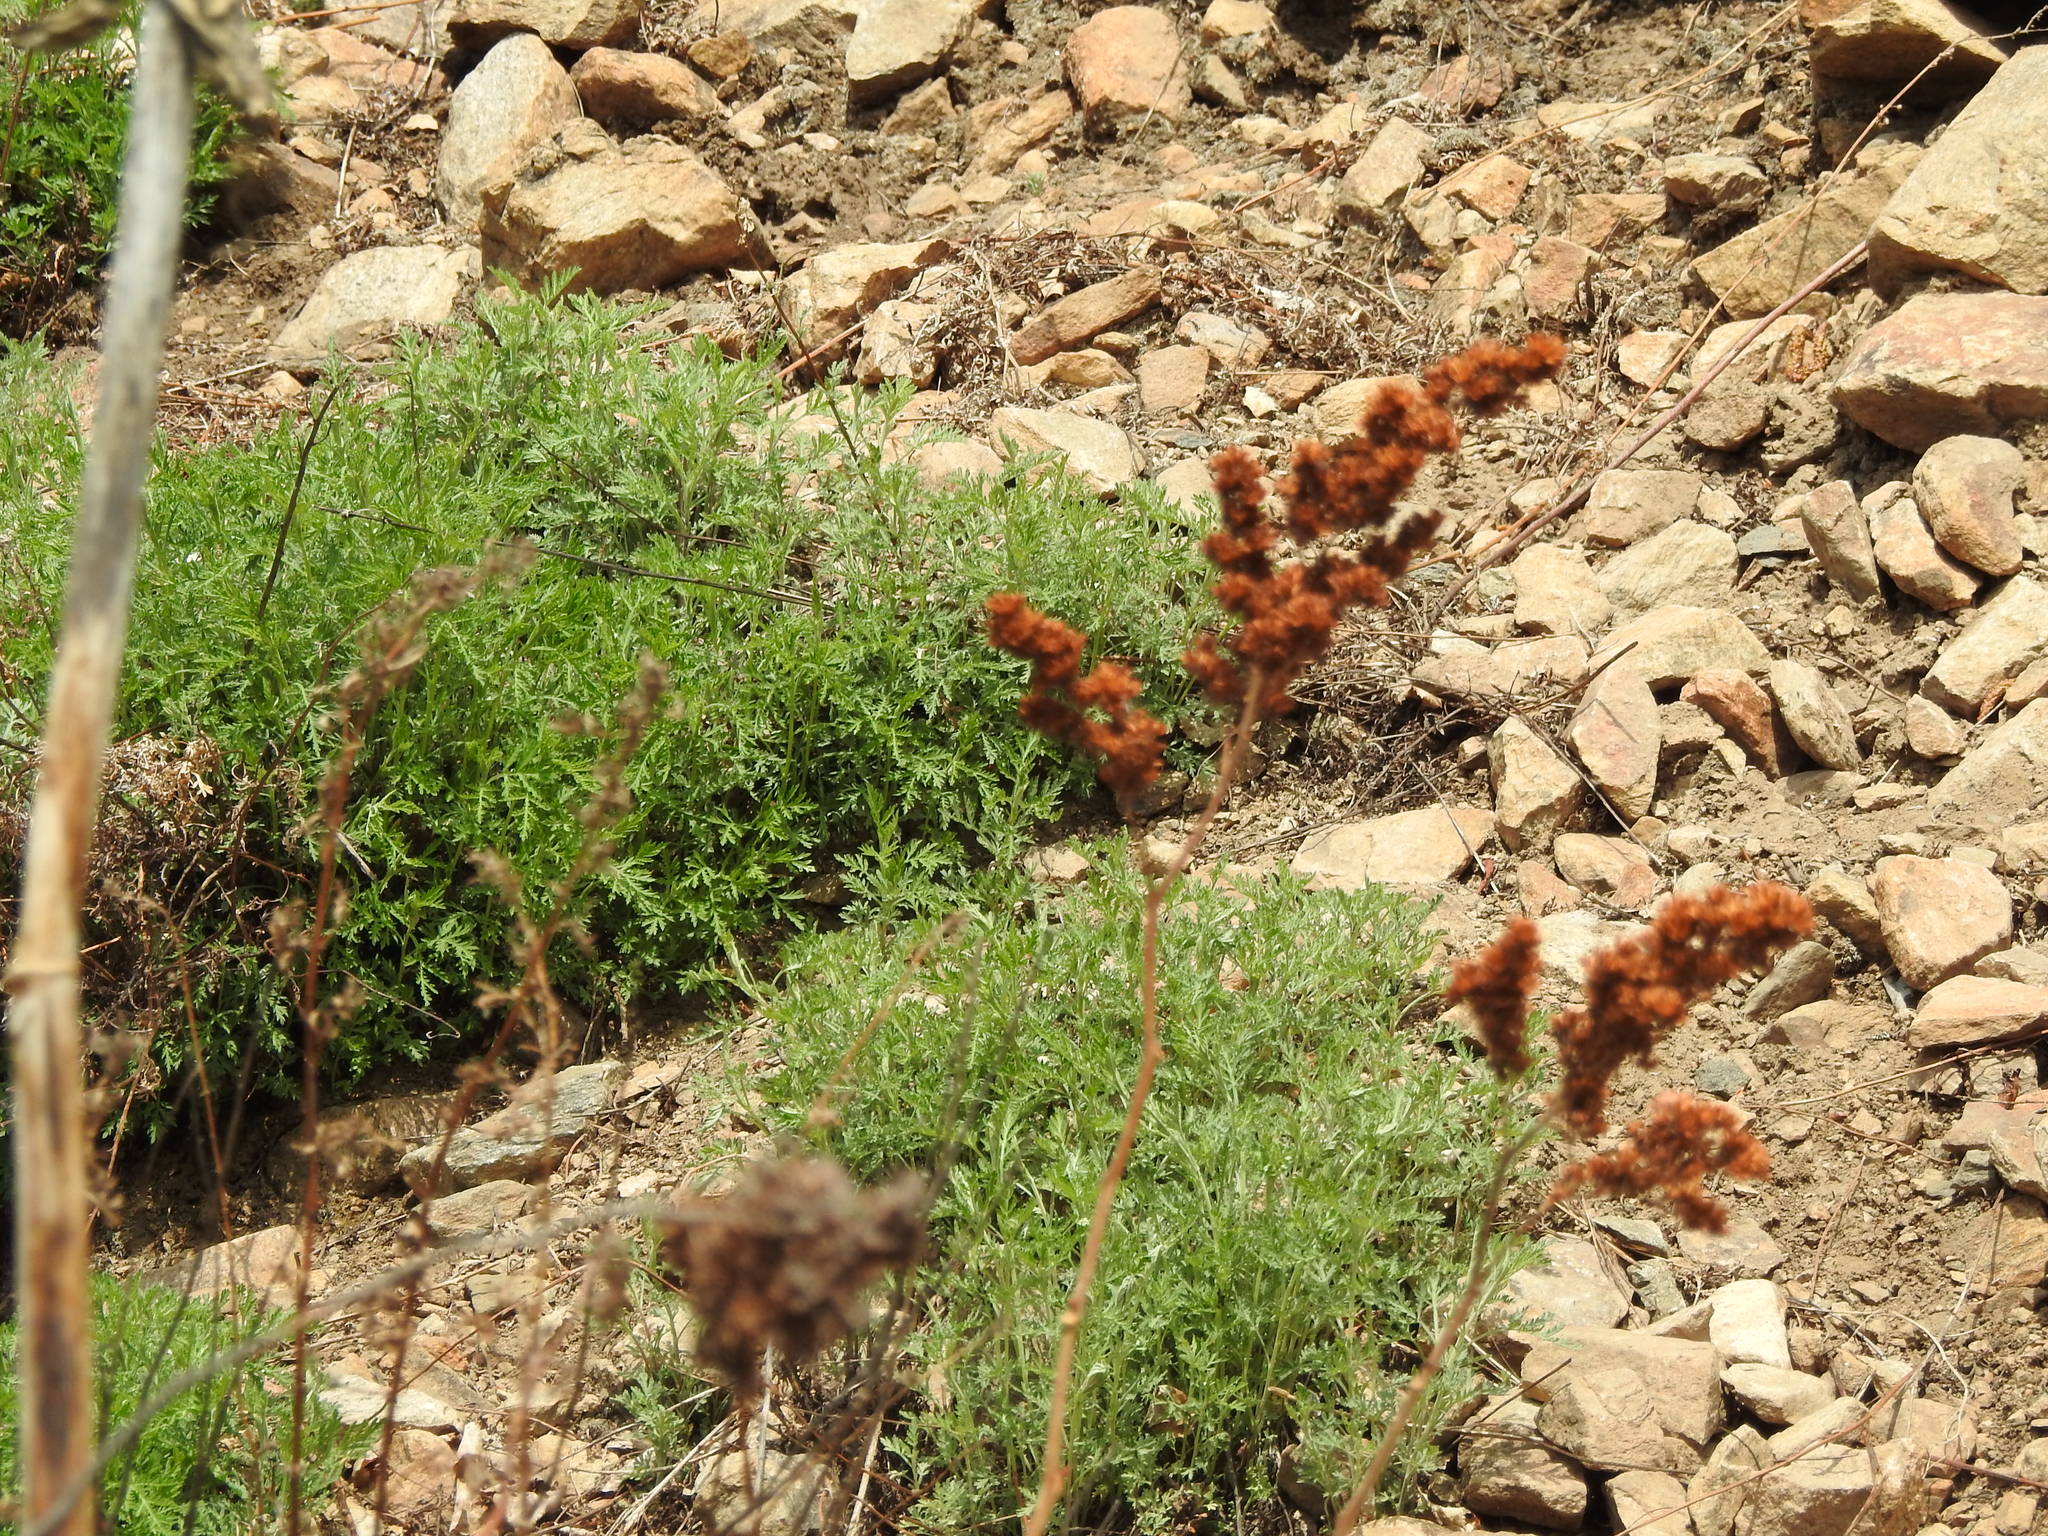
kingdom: Plantae
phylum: Tracheophyta
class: Magnoliopsida
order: Asterales
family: Asteraceae
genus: Artemisia
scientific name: Artemisia gmelinii
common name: Gmelin's wormwood
